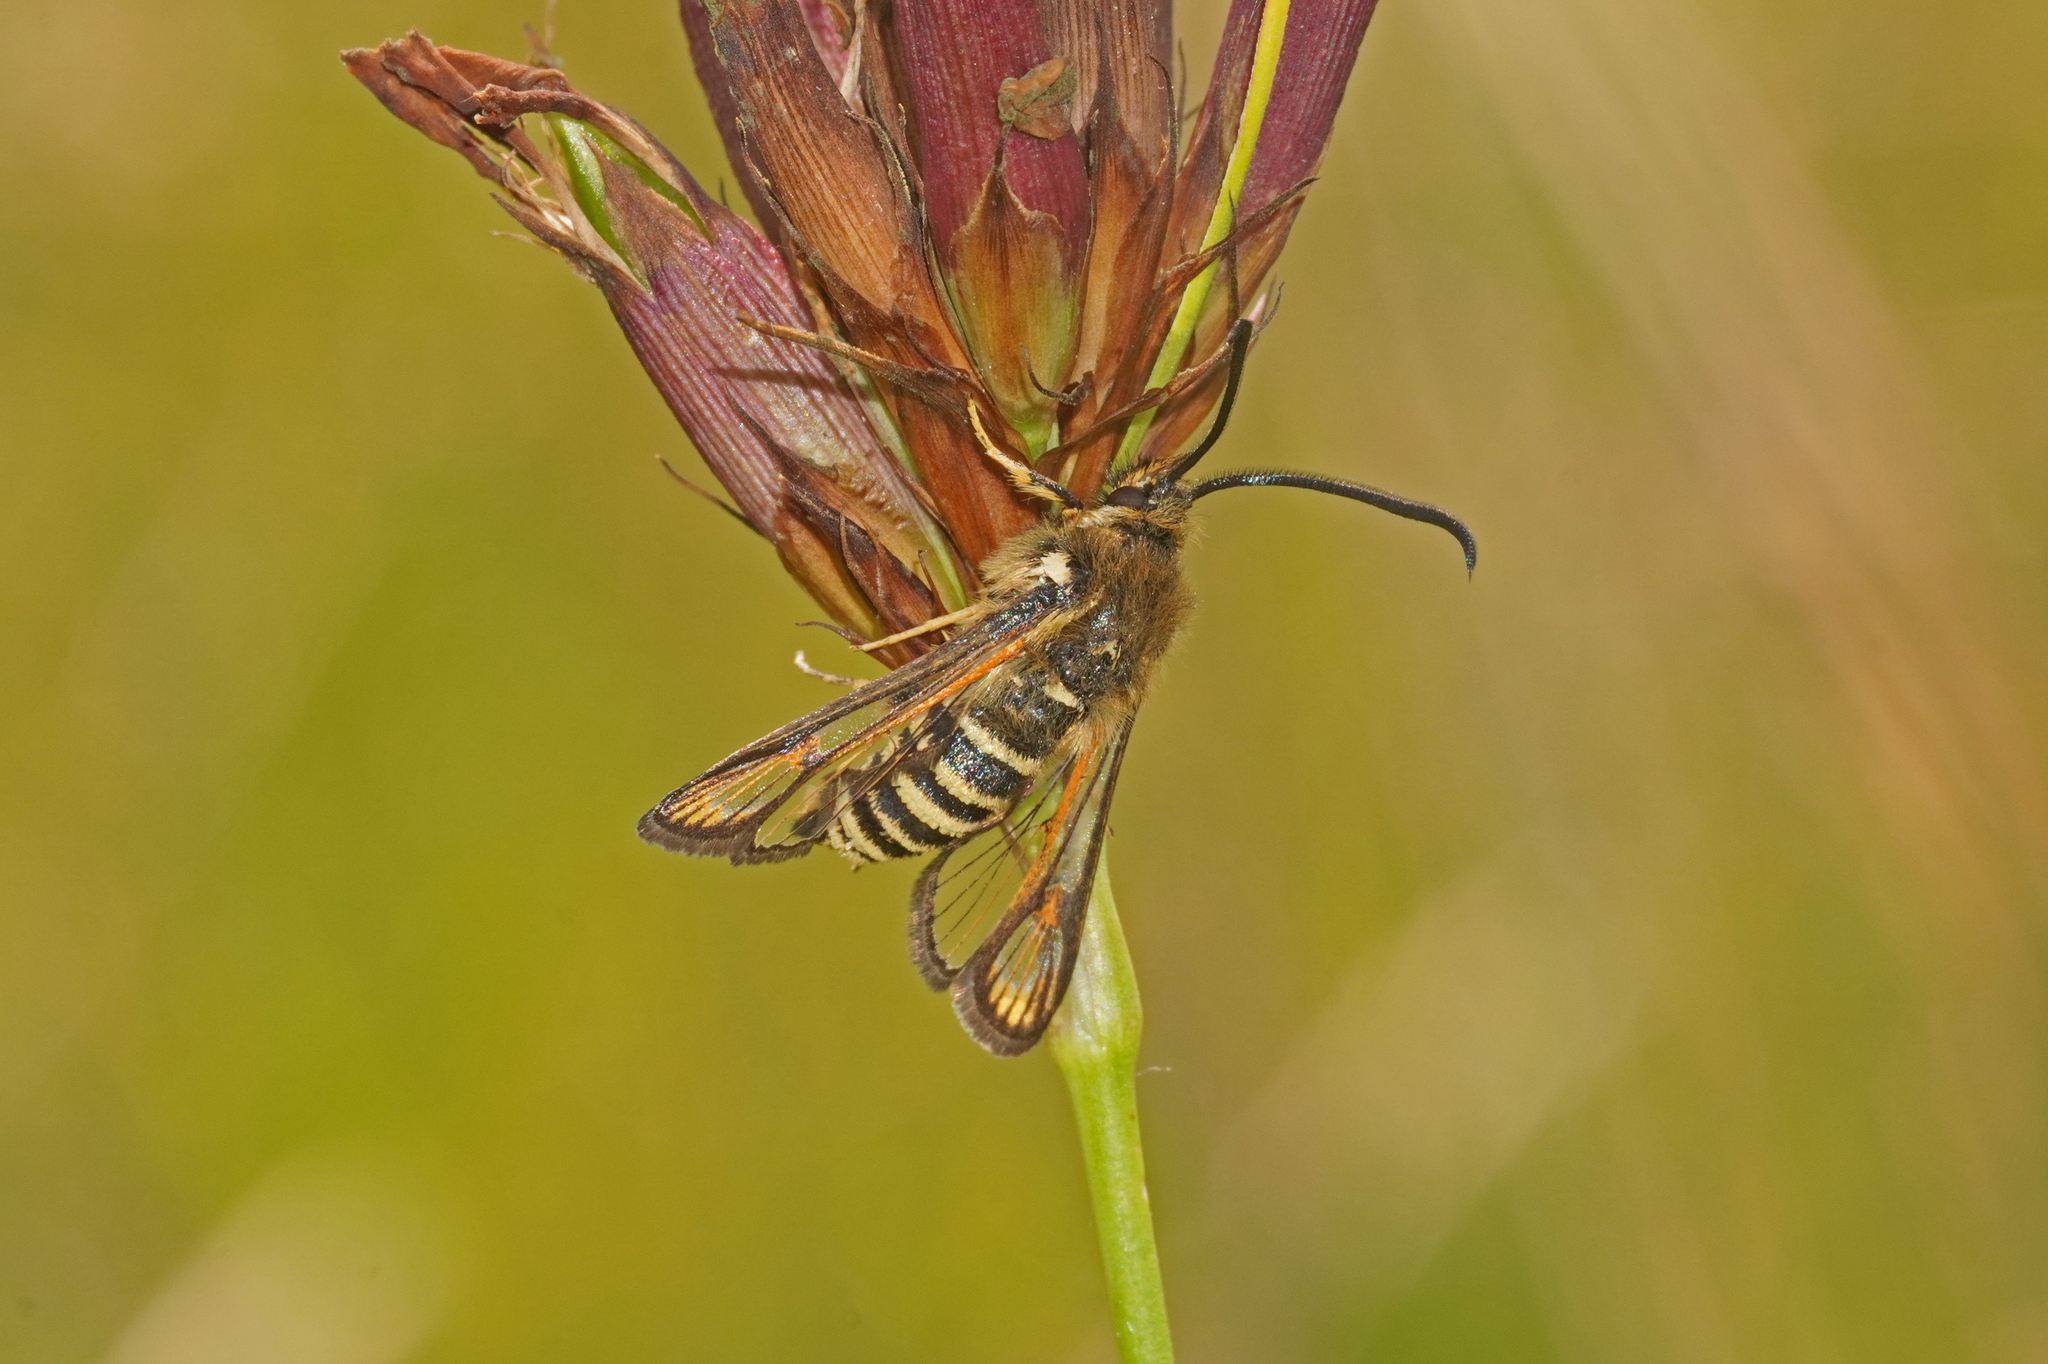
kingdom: Animalia
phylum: Arthropoda
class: Insecta
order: Lepidoptera
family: Sesiidae
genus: Bembecia
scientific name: Bembecia ichneumoniformis
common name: Six-belted clearwing
